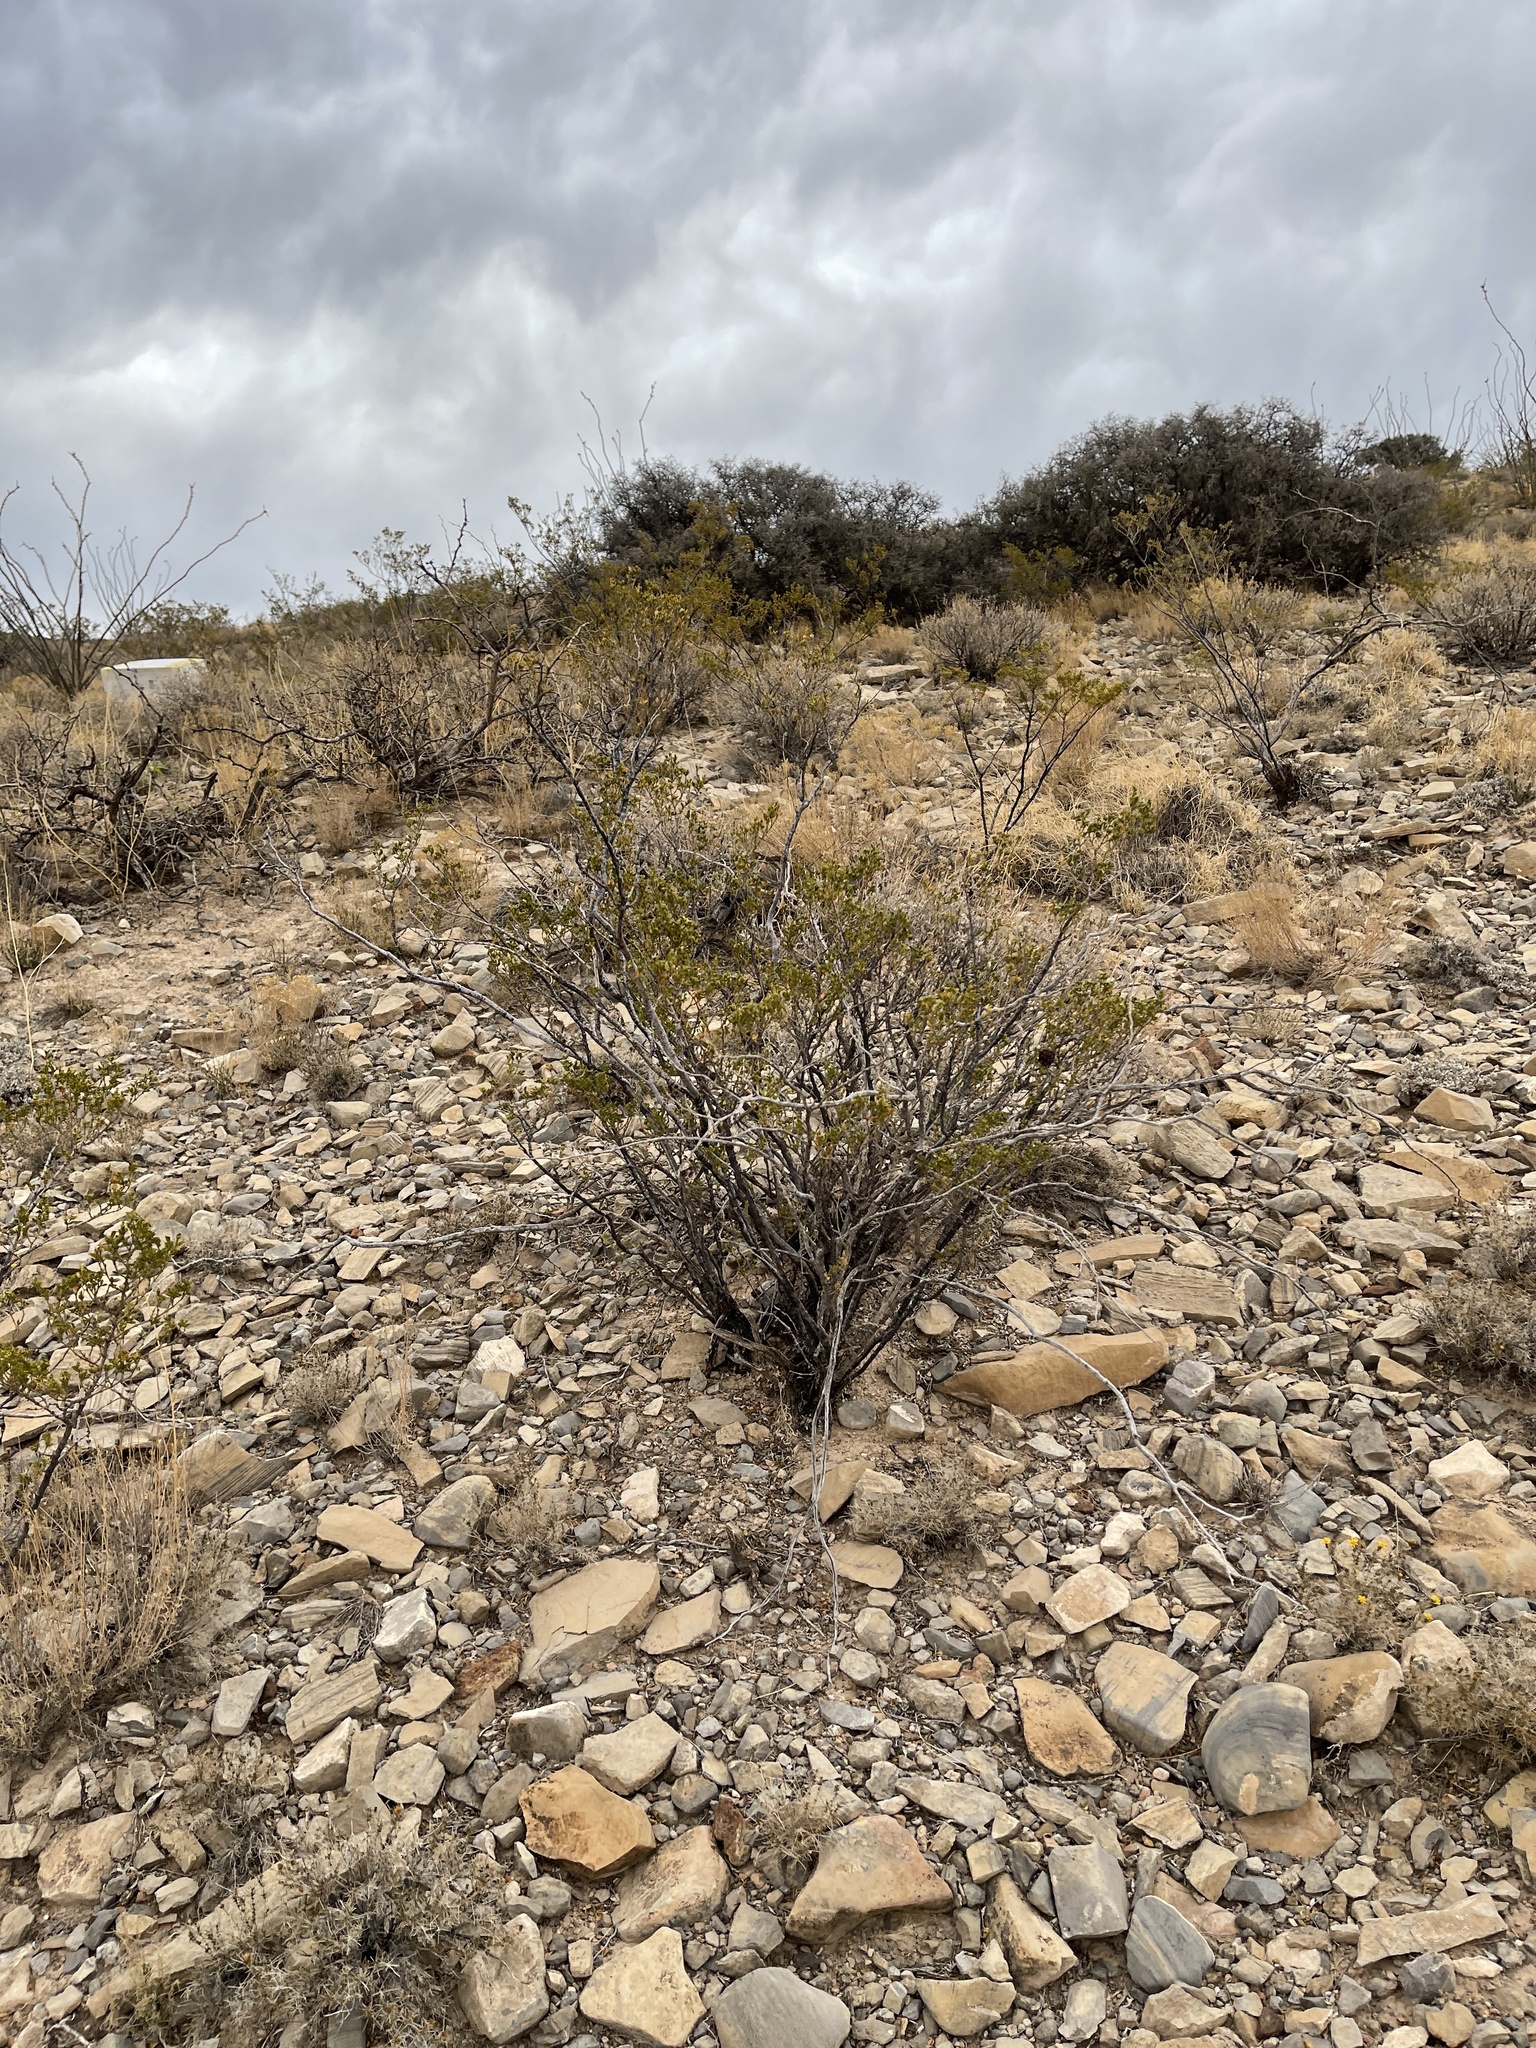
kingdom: Plantae
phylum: Tracheophyta
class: Magnoliopsida
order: Zygophyllales
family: Zygophyllaceae
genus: Larrea
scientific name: Larrea tridentata
